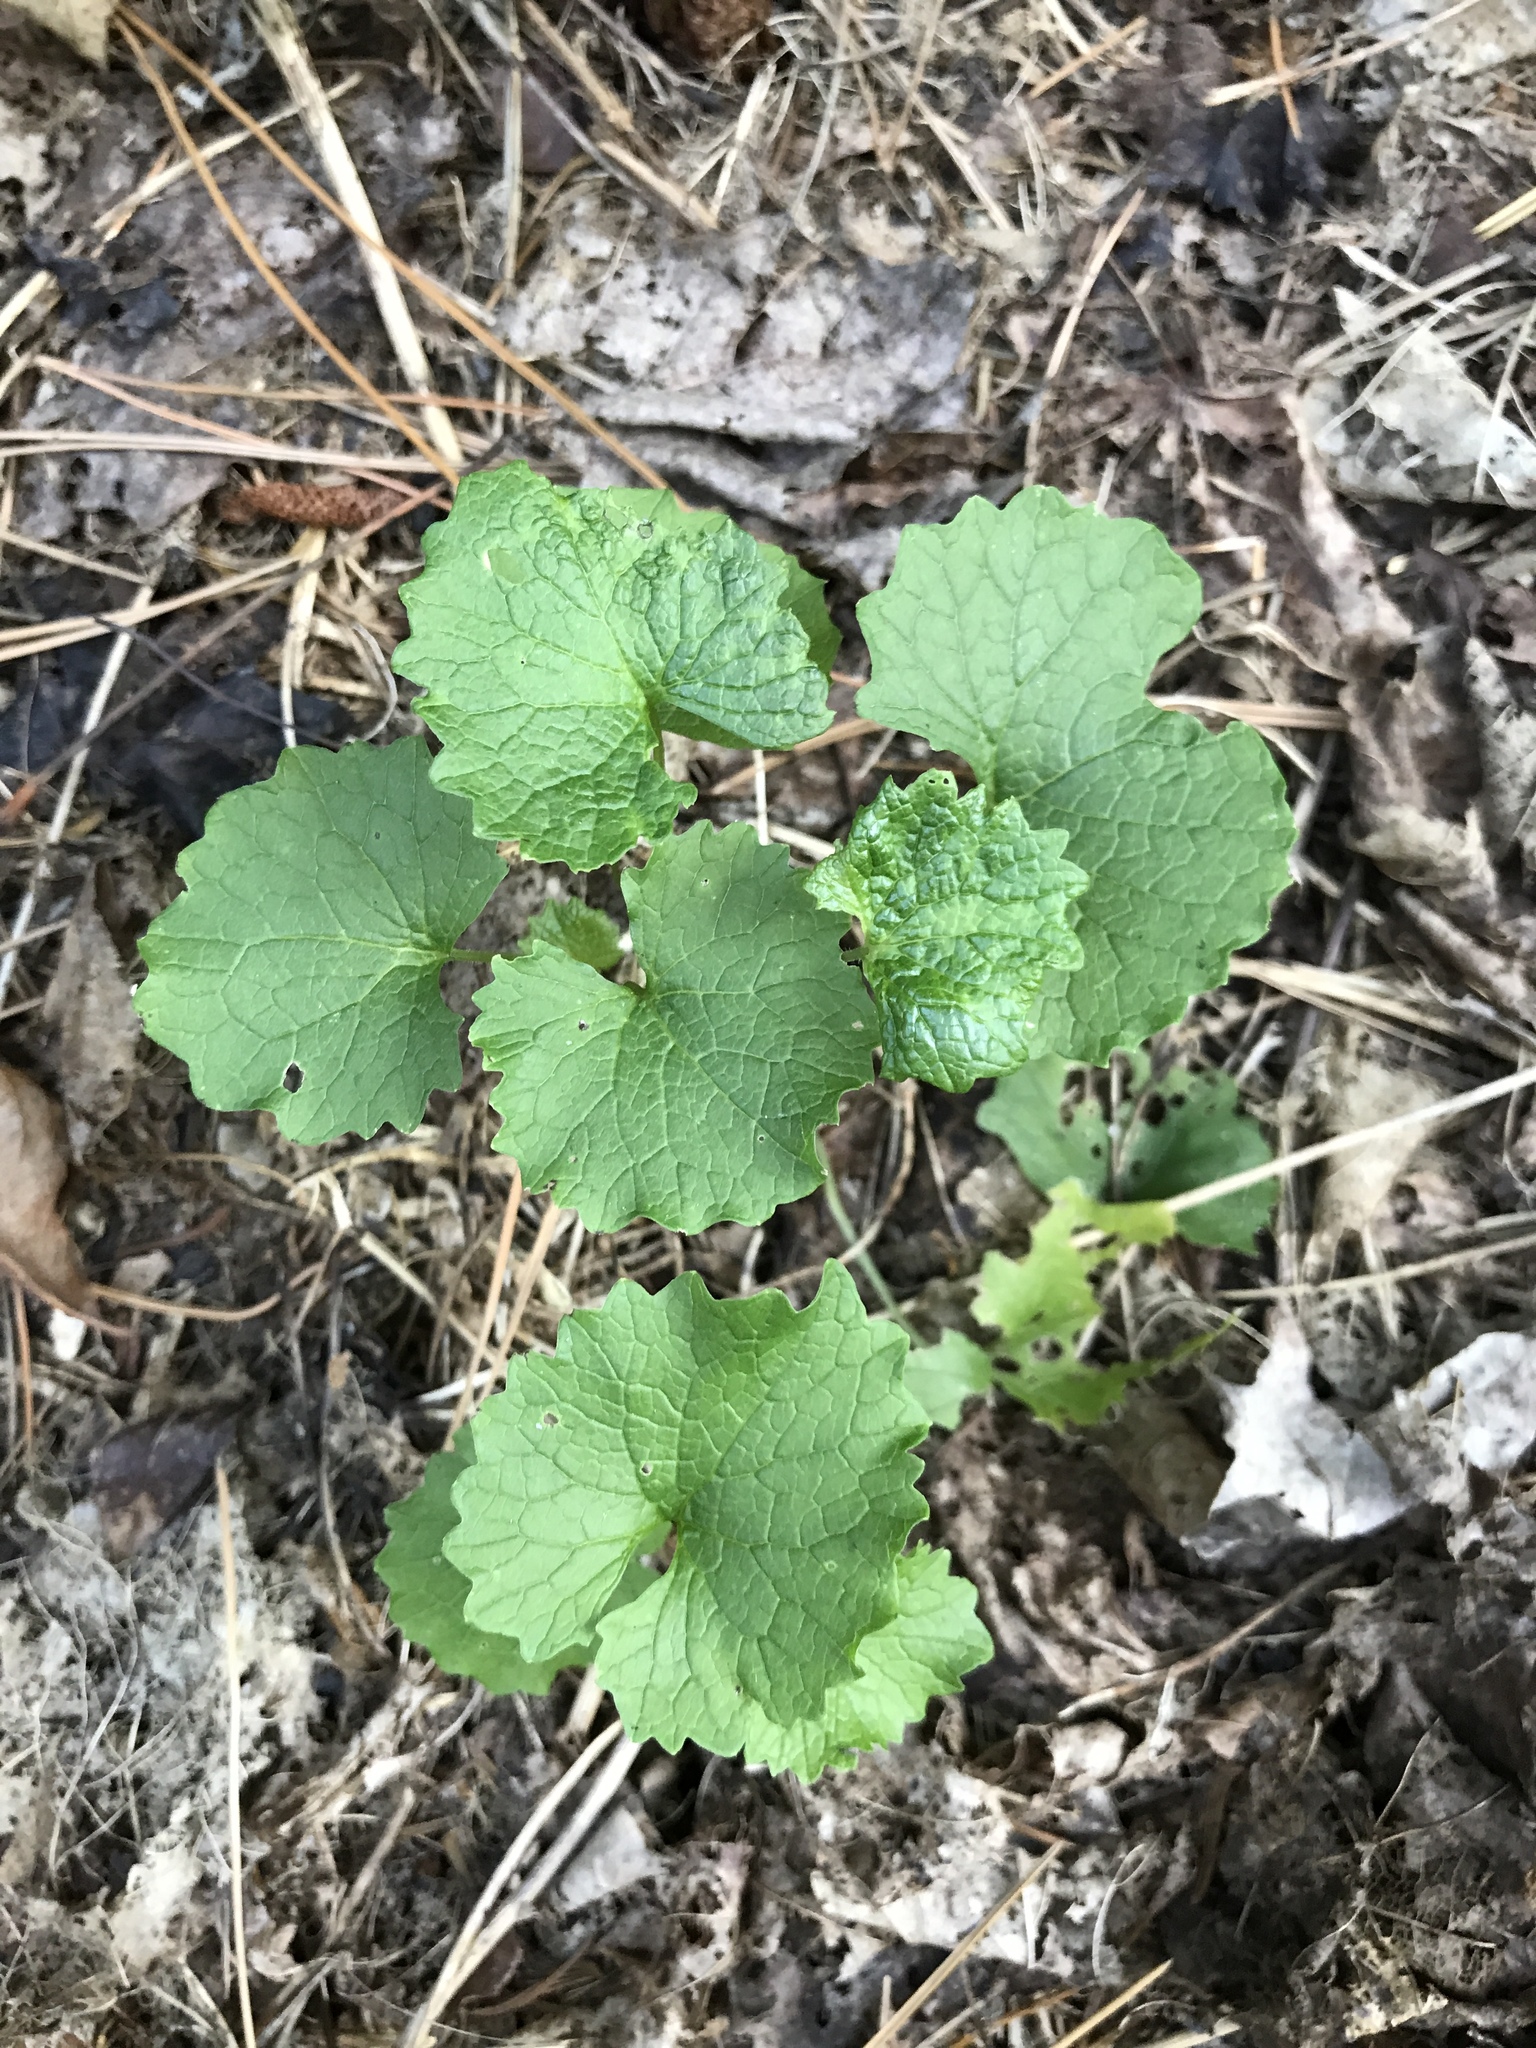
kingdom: Plantae
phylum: Tracheophyta
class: Magnoliopsida
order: Brassicales
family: Brassicaceae
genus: Alliaria
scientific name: Alliaria petiolata
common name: Garlic mustard
